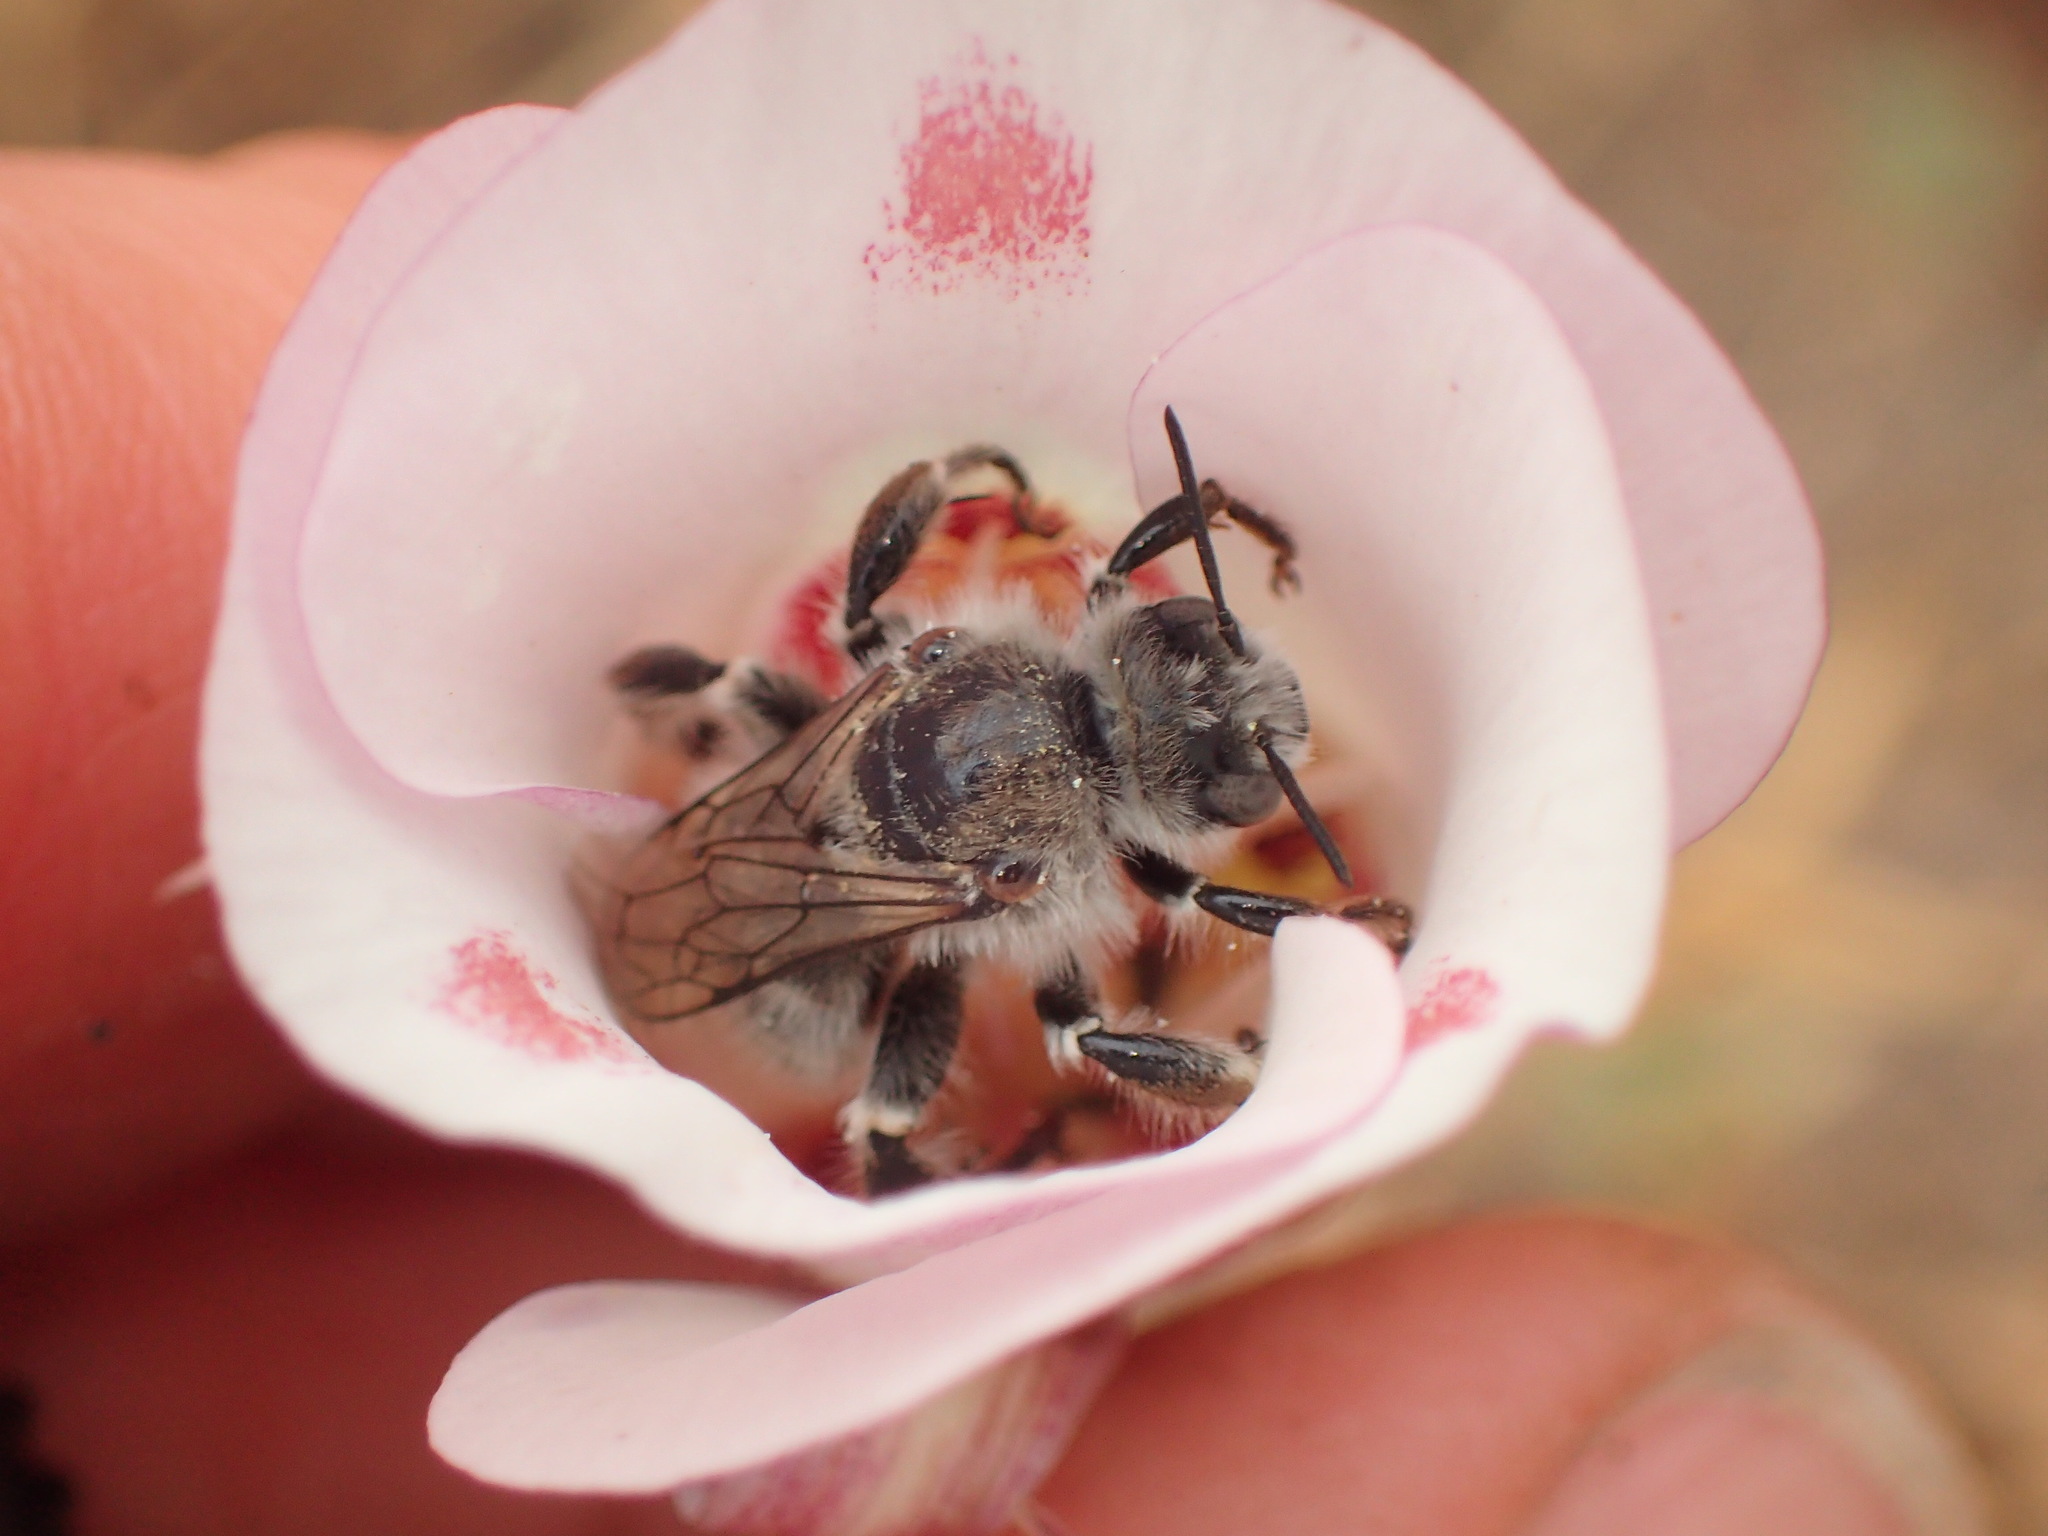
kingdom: Plantae
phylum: Tracheophyta
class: Liliopsida
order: Liliales
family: Liliaceae
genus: Calochortus
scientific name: Calochortus venustus
